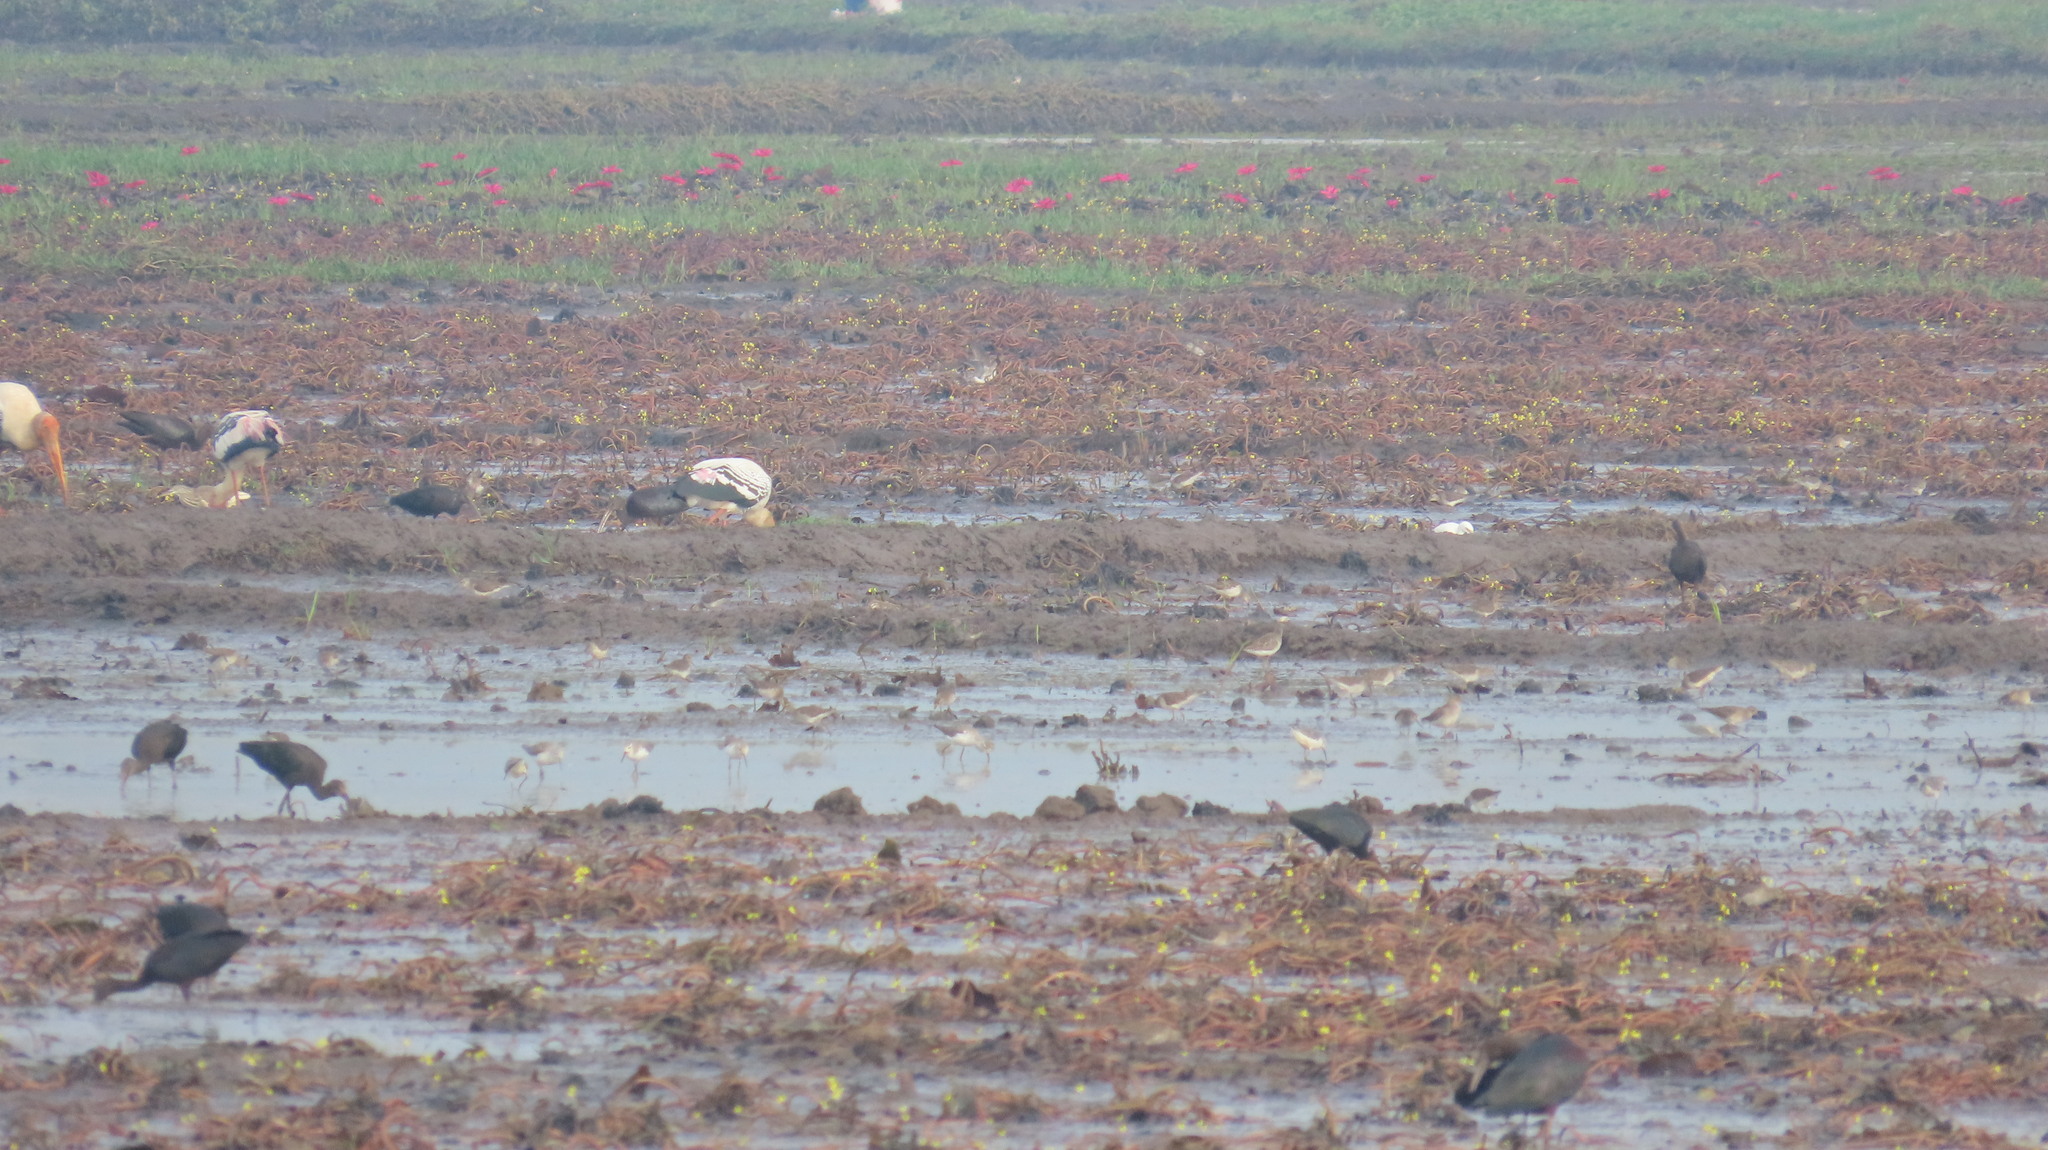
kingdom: Animalia
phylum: Chordata
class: Aves
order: Ciconiiformes
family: Ciconiidae
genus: Mycteria
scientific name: Mycteria leucocephala
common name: Painted stork
